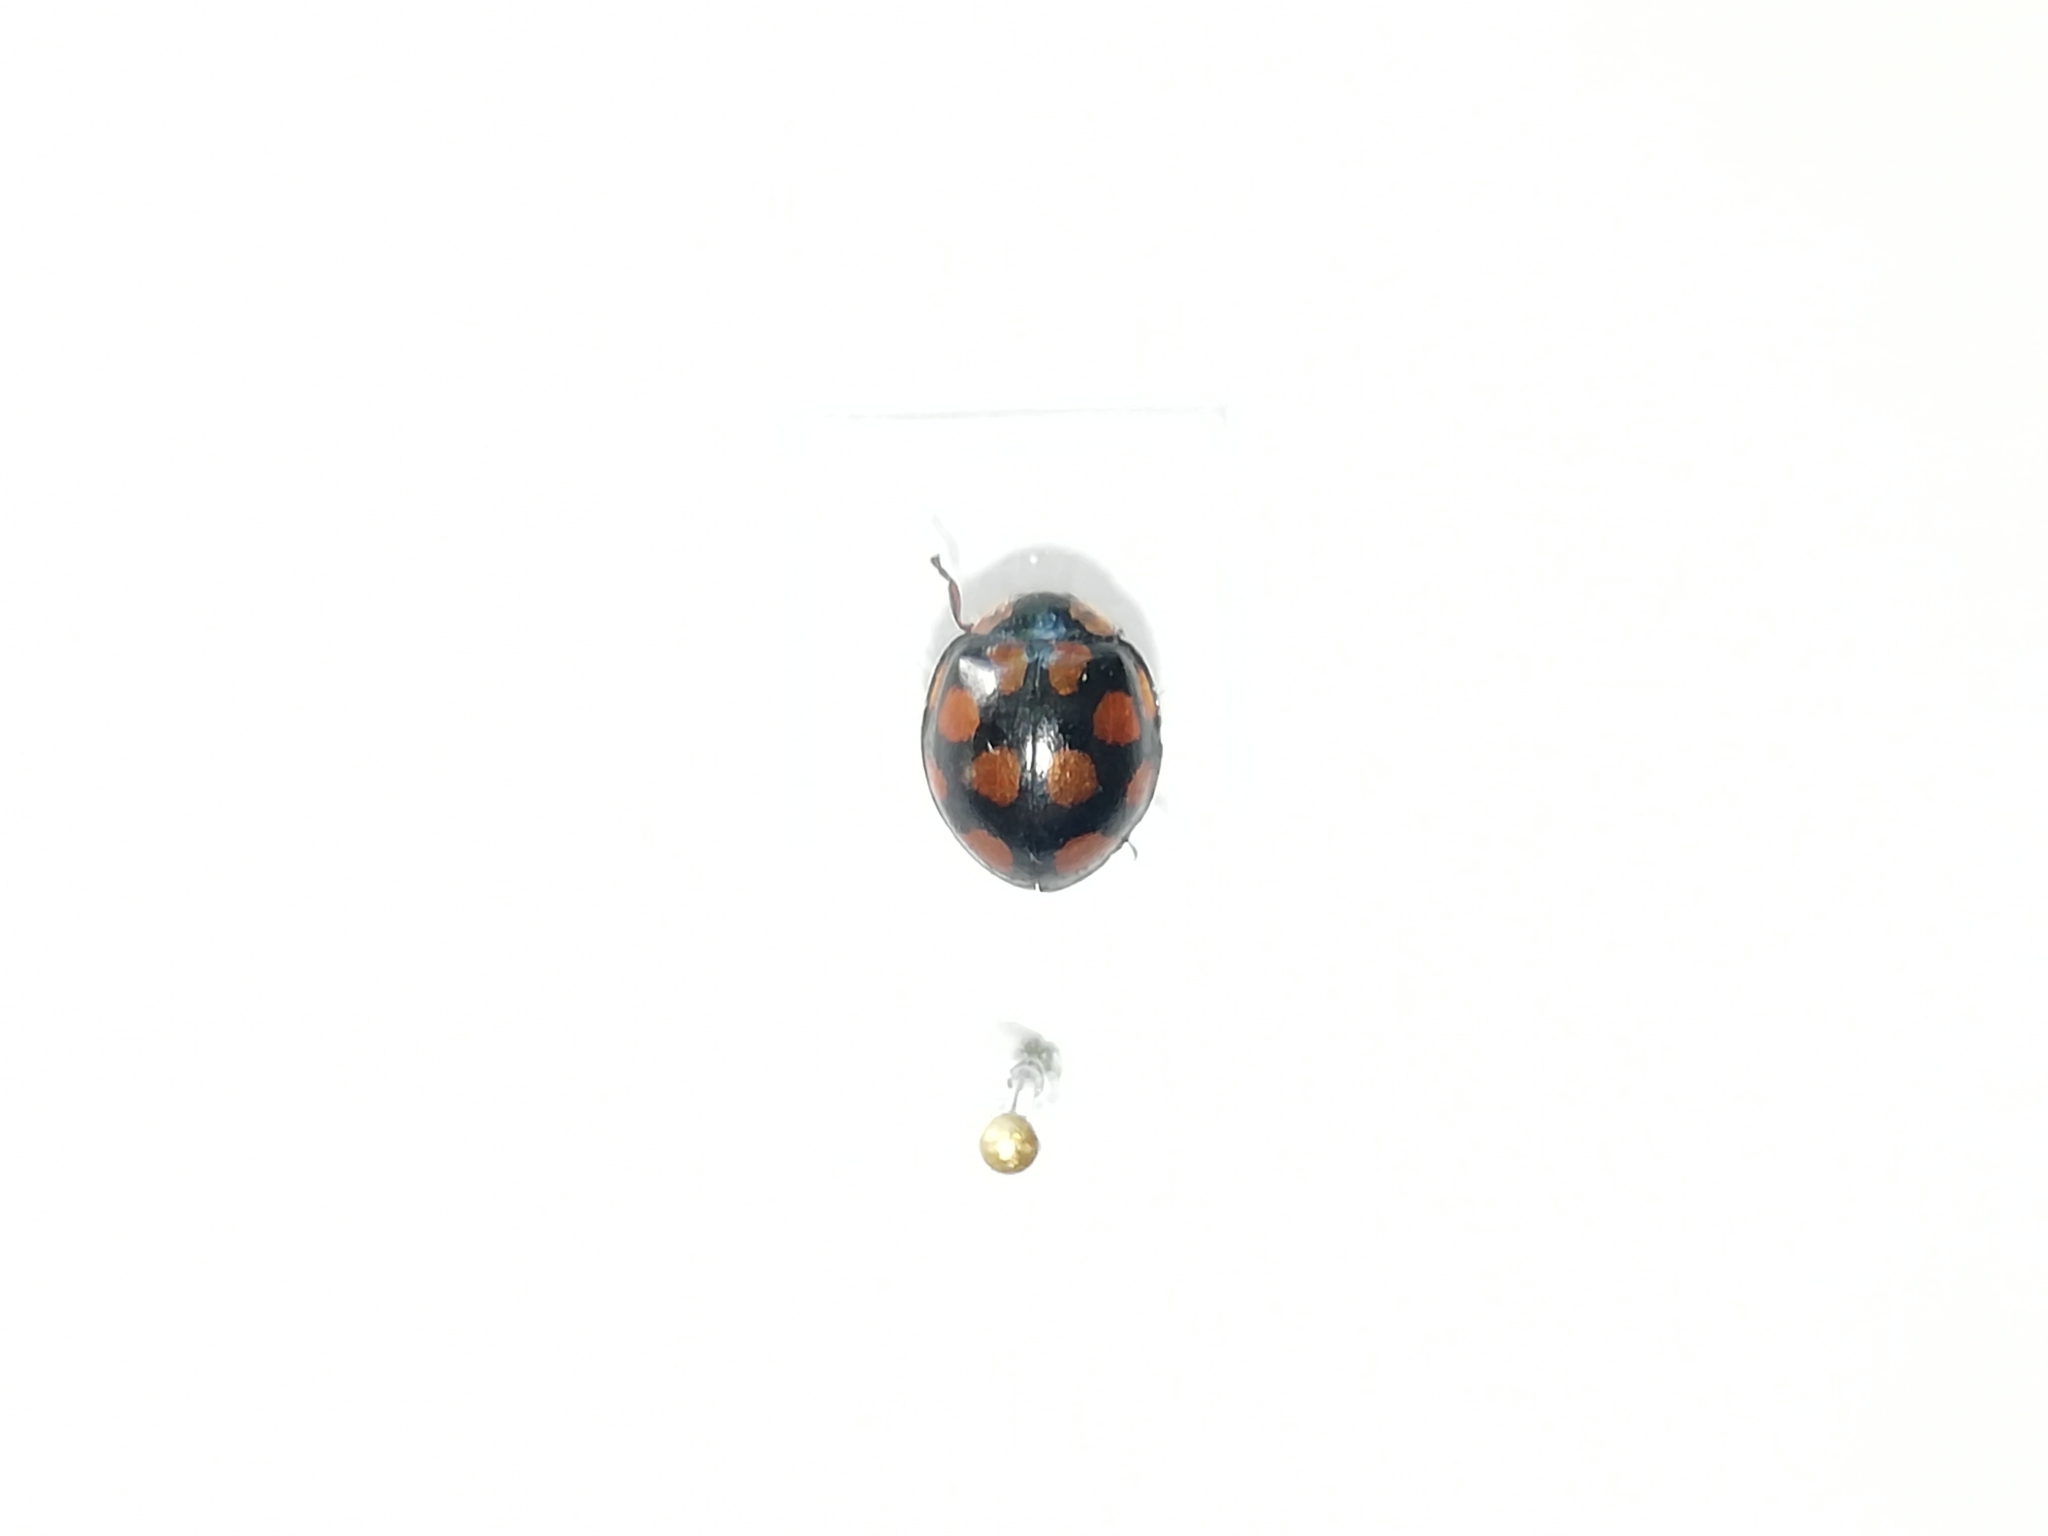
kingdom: Animalia
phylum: Arthropoda
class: Insecta
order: Coleoptera
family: Coccinellidae
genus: Harmonia
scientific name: Harmonia axyridis
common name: Harlequin ladybird
